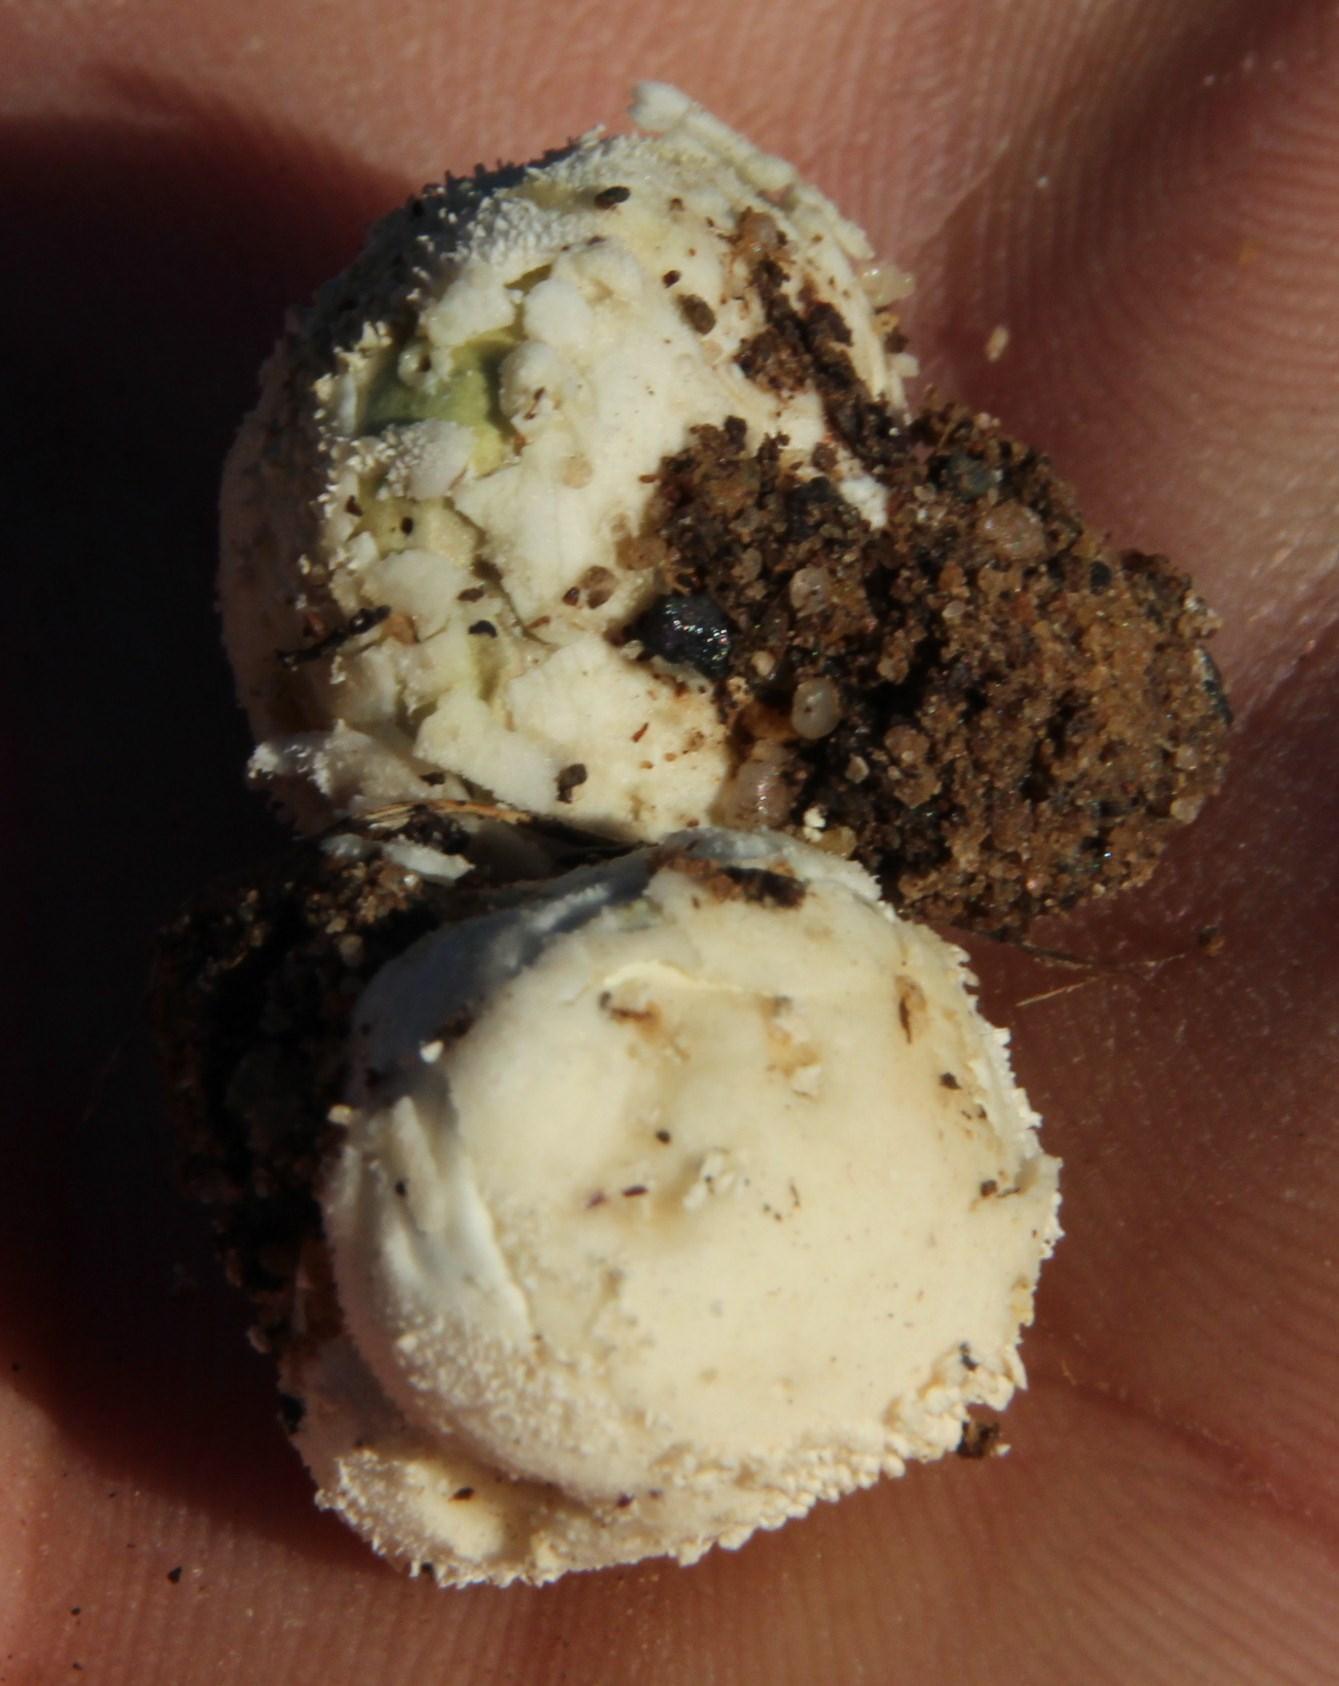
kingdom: Fungi
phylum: Basidiomycota
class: Agaricomycetes
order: Agaricales
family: Lycoperdaceae
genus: Lycoperdon
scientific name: Lycoperdon pratense
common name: Meadow puffball
